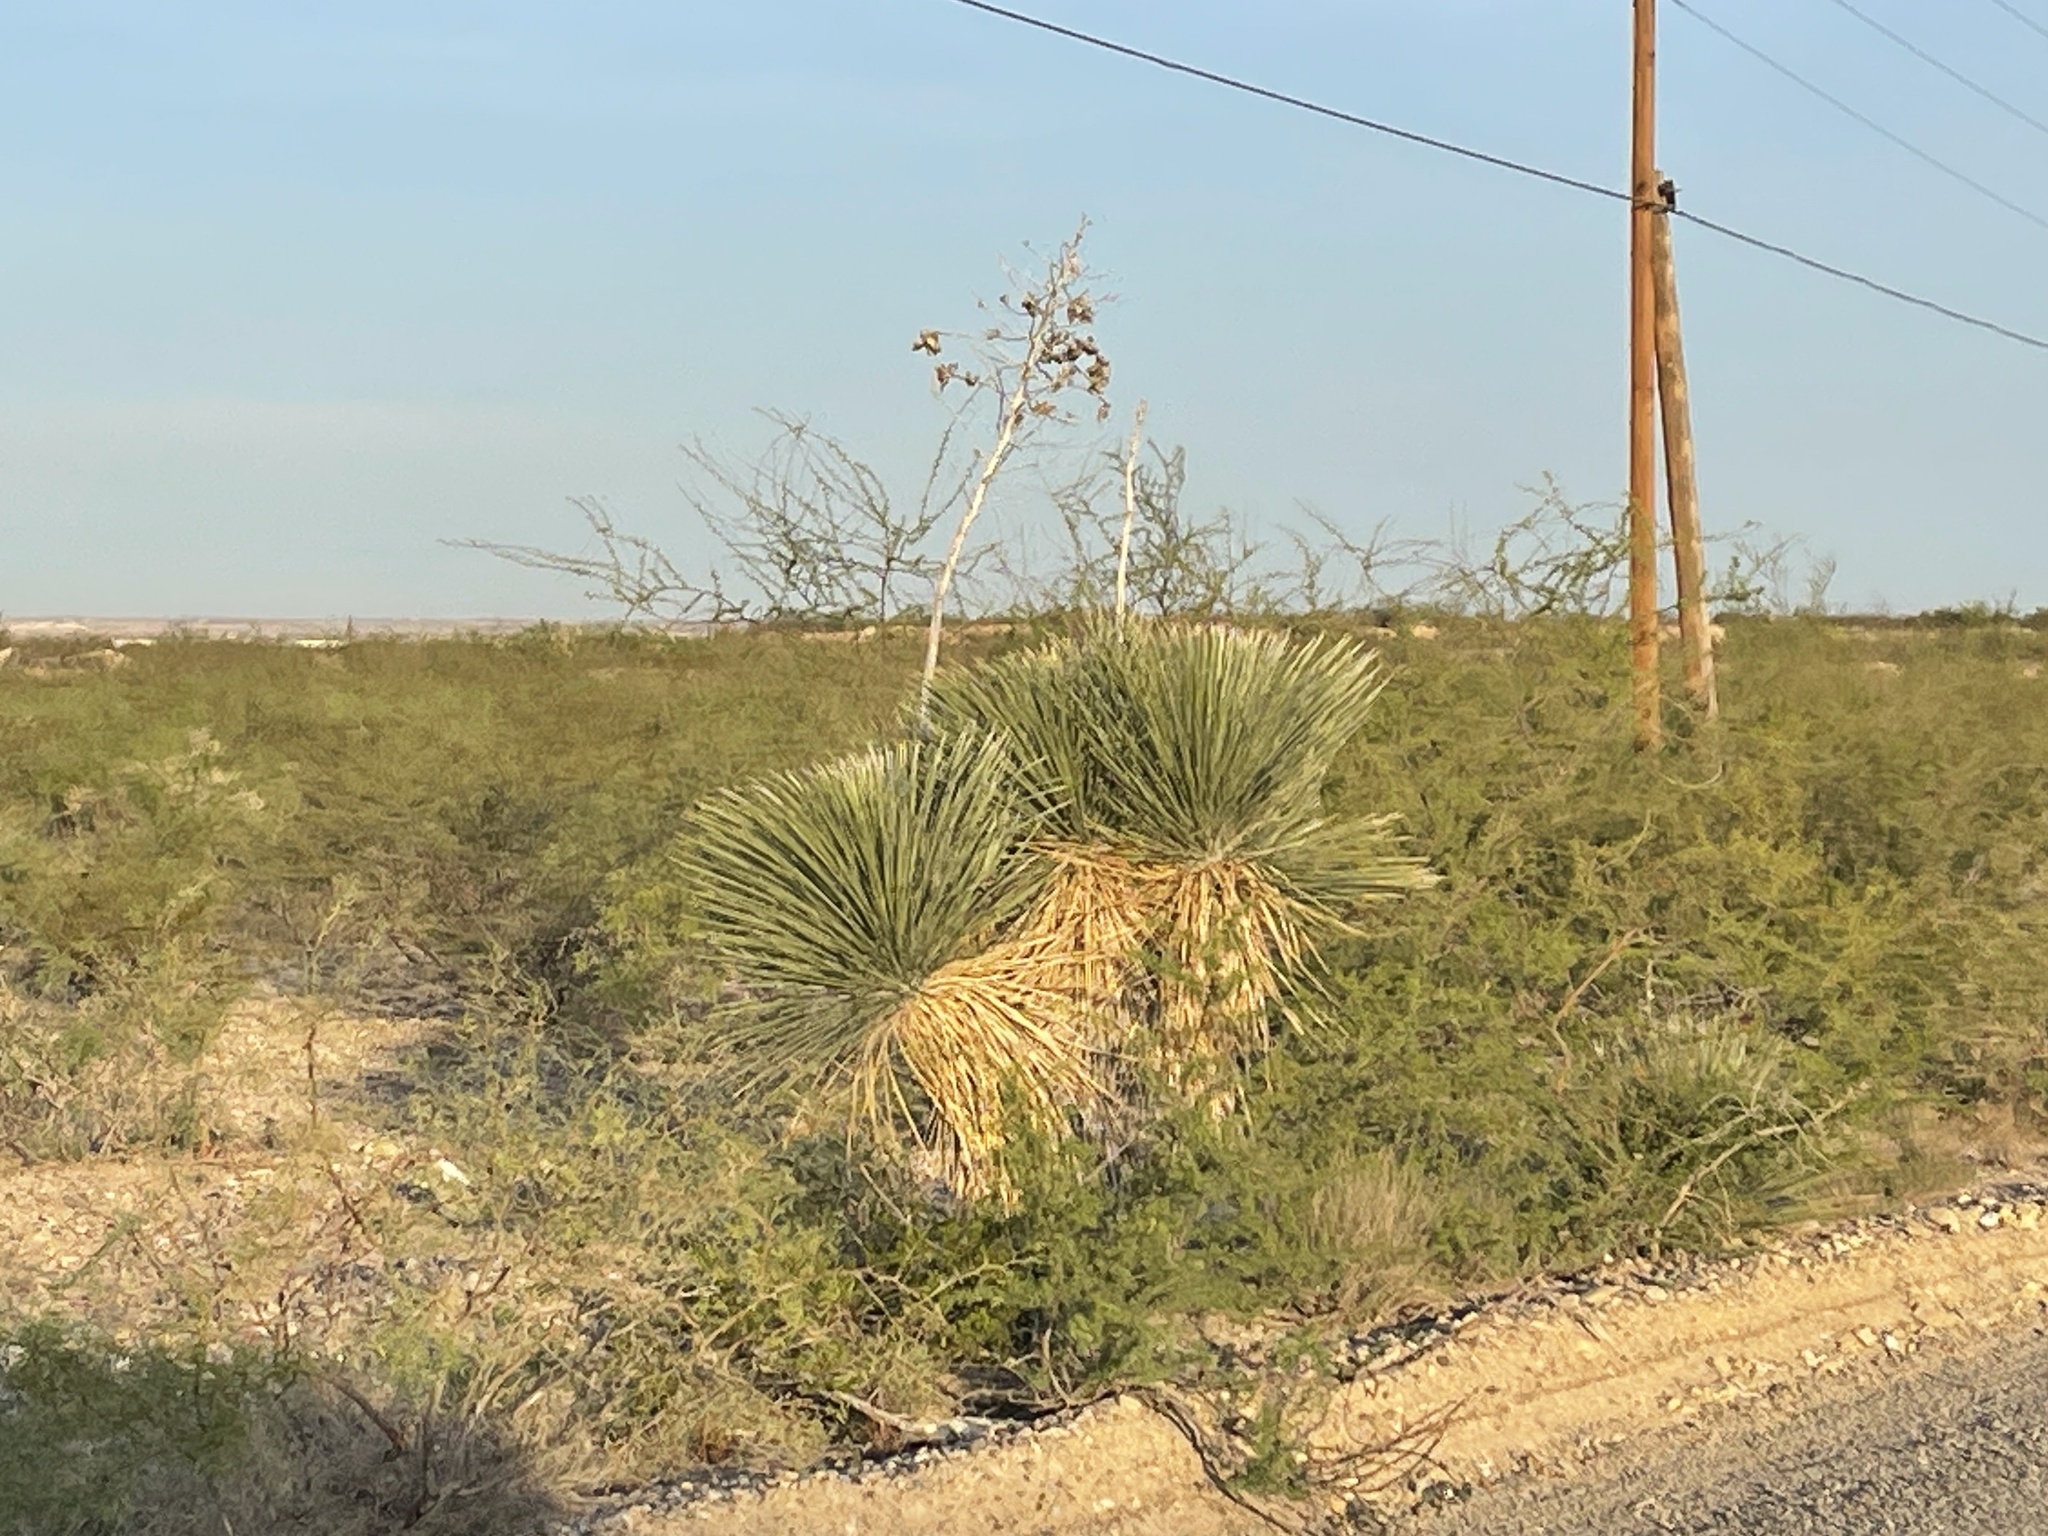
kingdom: Plantae
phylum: Tracheophyta
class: Liliopsida
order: Asparagales
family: Asparagaceae
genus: Yucca
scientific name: Yucca elata
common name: Palmella
